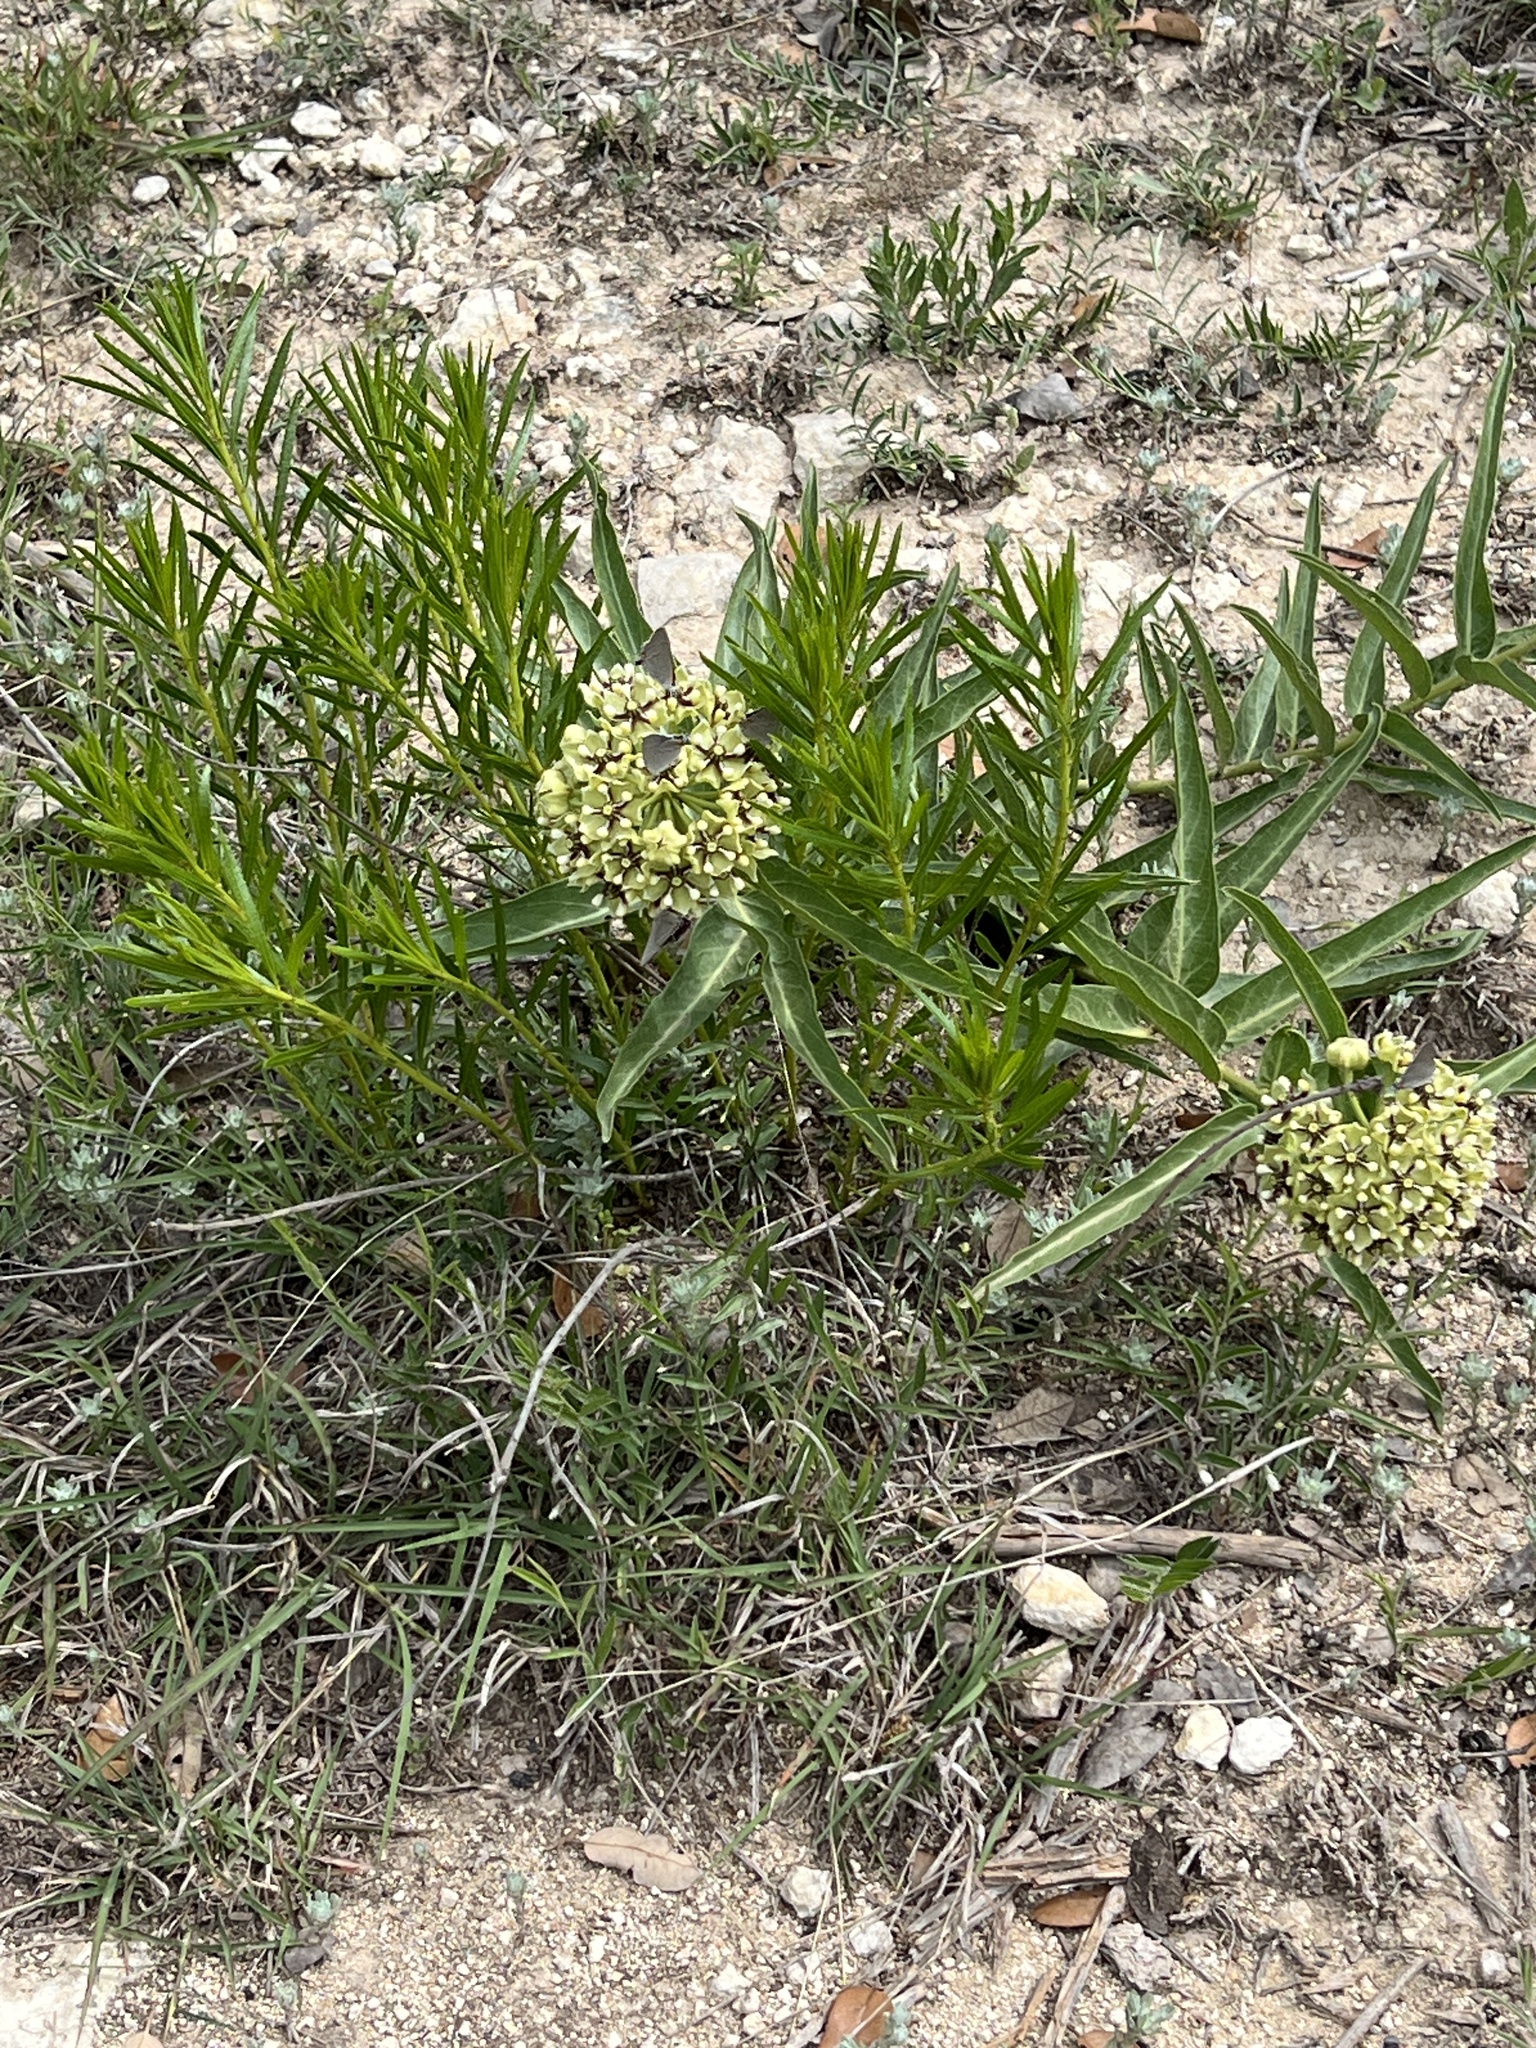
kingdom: Plantae
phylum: Tracheophyta
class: Magnoliopsida
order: Gentianales
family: Apocynaceae
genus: Asclepias
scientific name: Asclepias asperula
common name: Antelope horns
